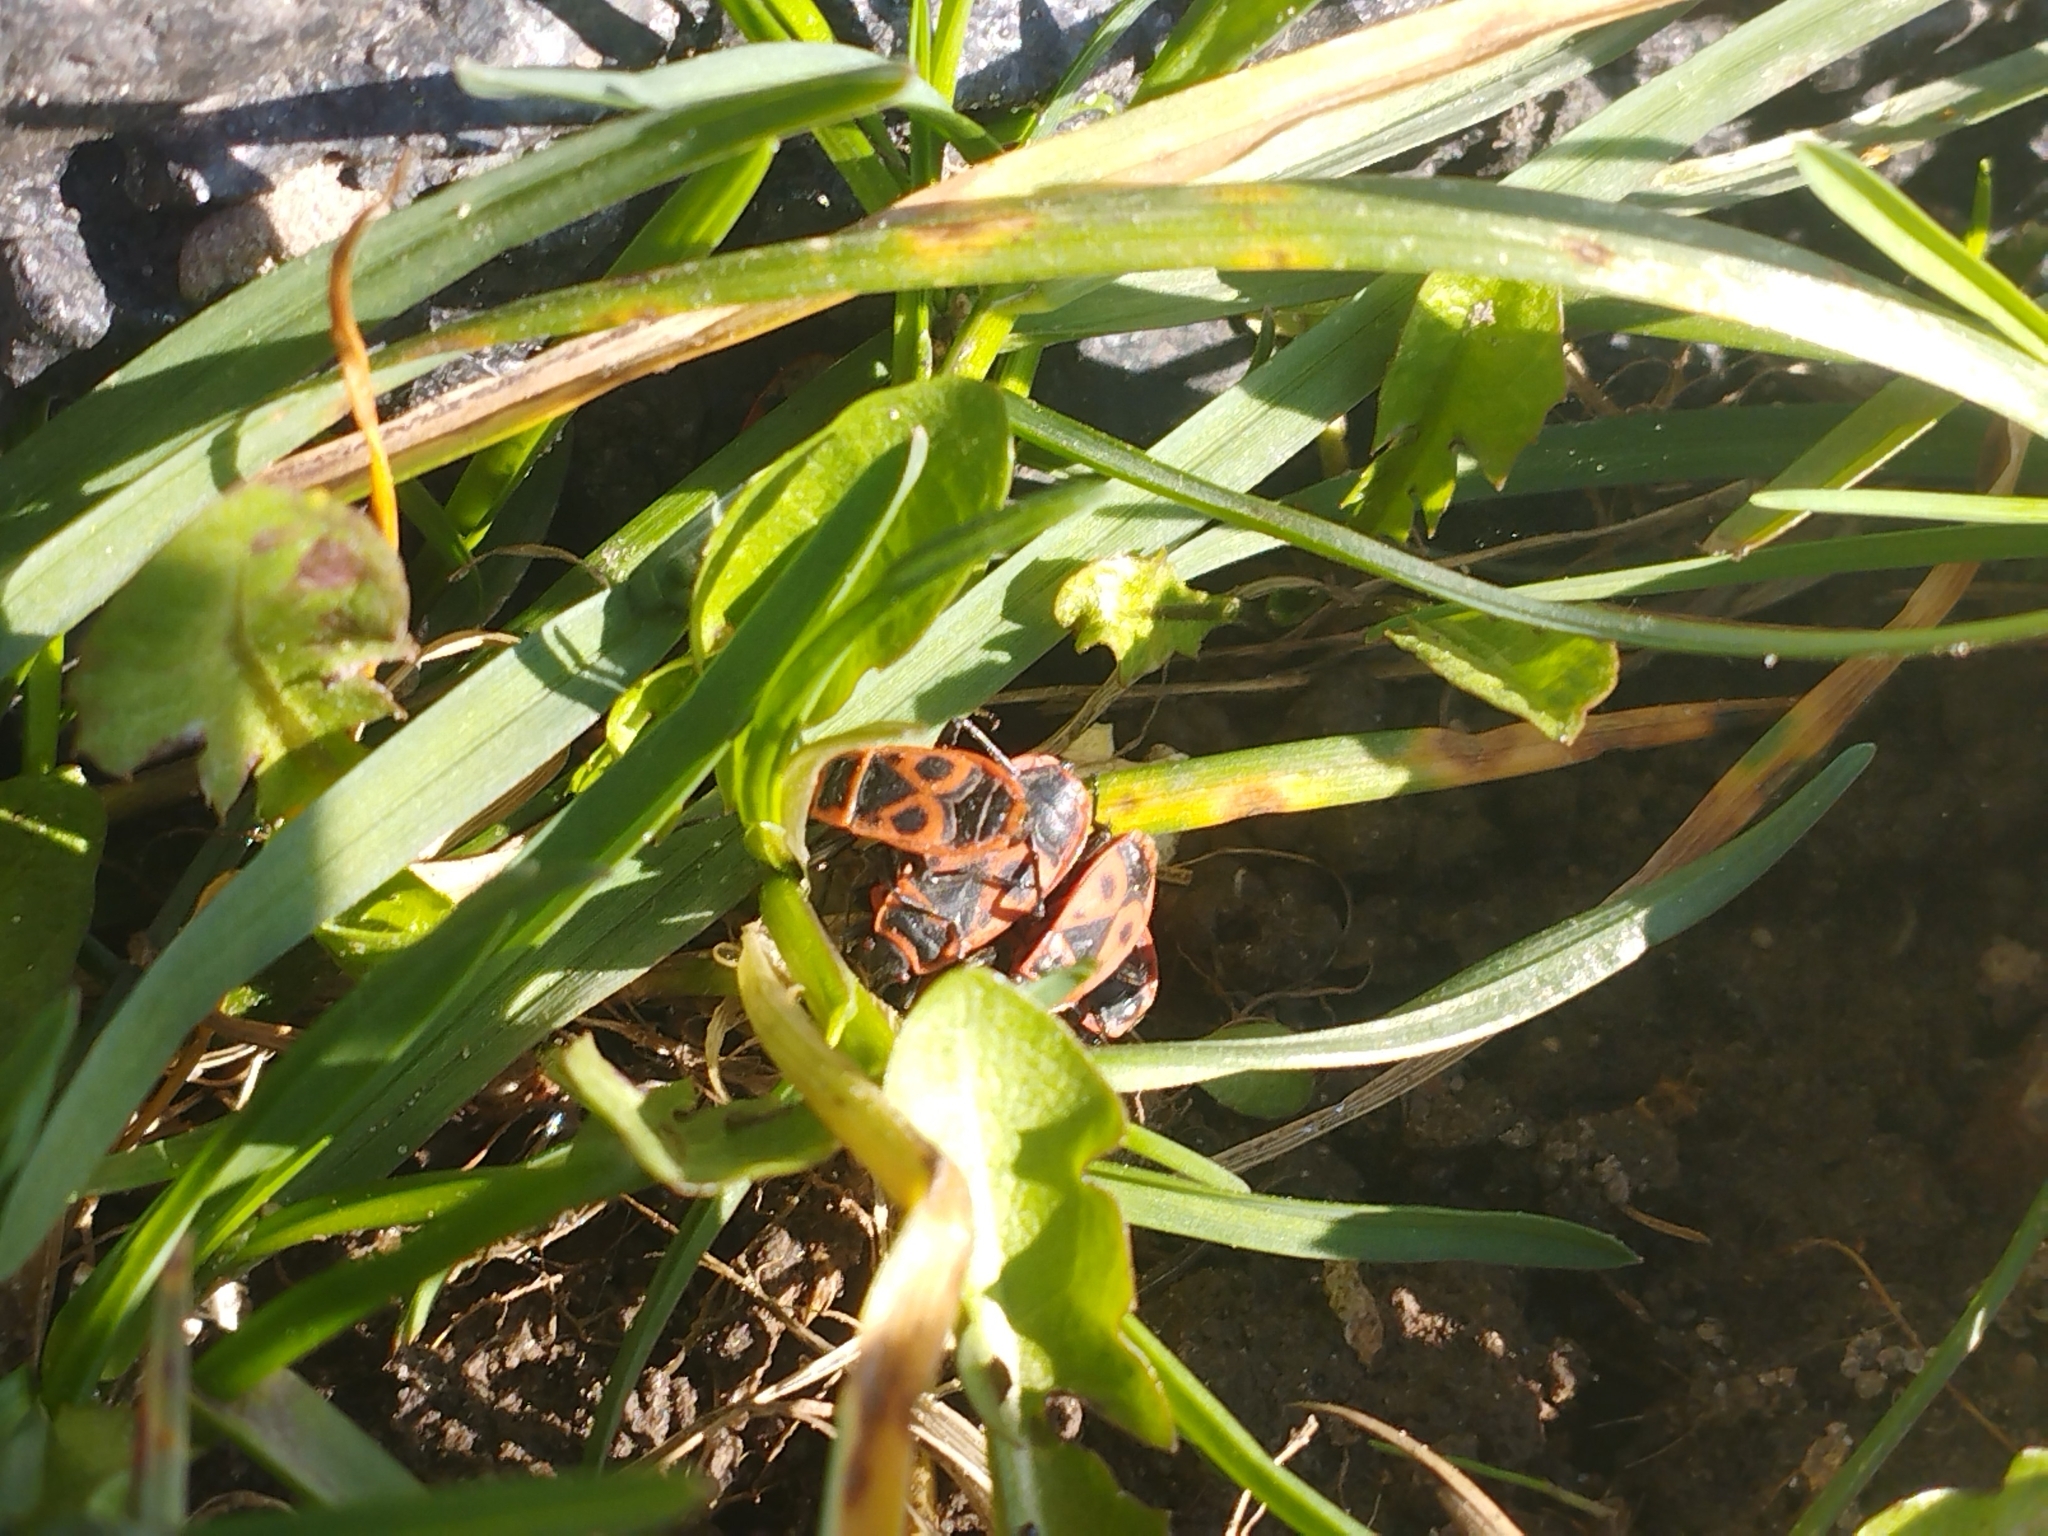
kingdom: Animalia
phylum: Arthropoda
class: Insecta
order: Hemiptera
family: Pyrrhocoridae
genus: Pyrrhocoris
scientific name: Pyrrhocoris apterus
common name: Firebug
